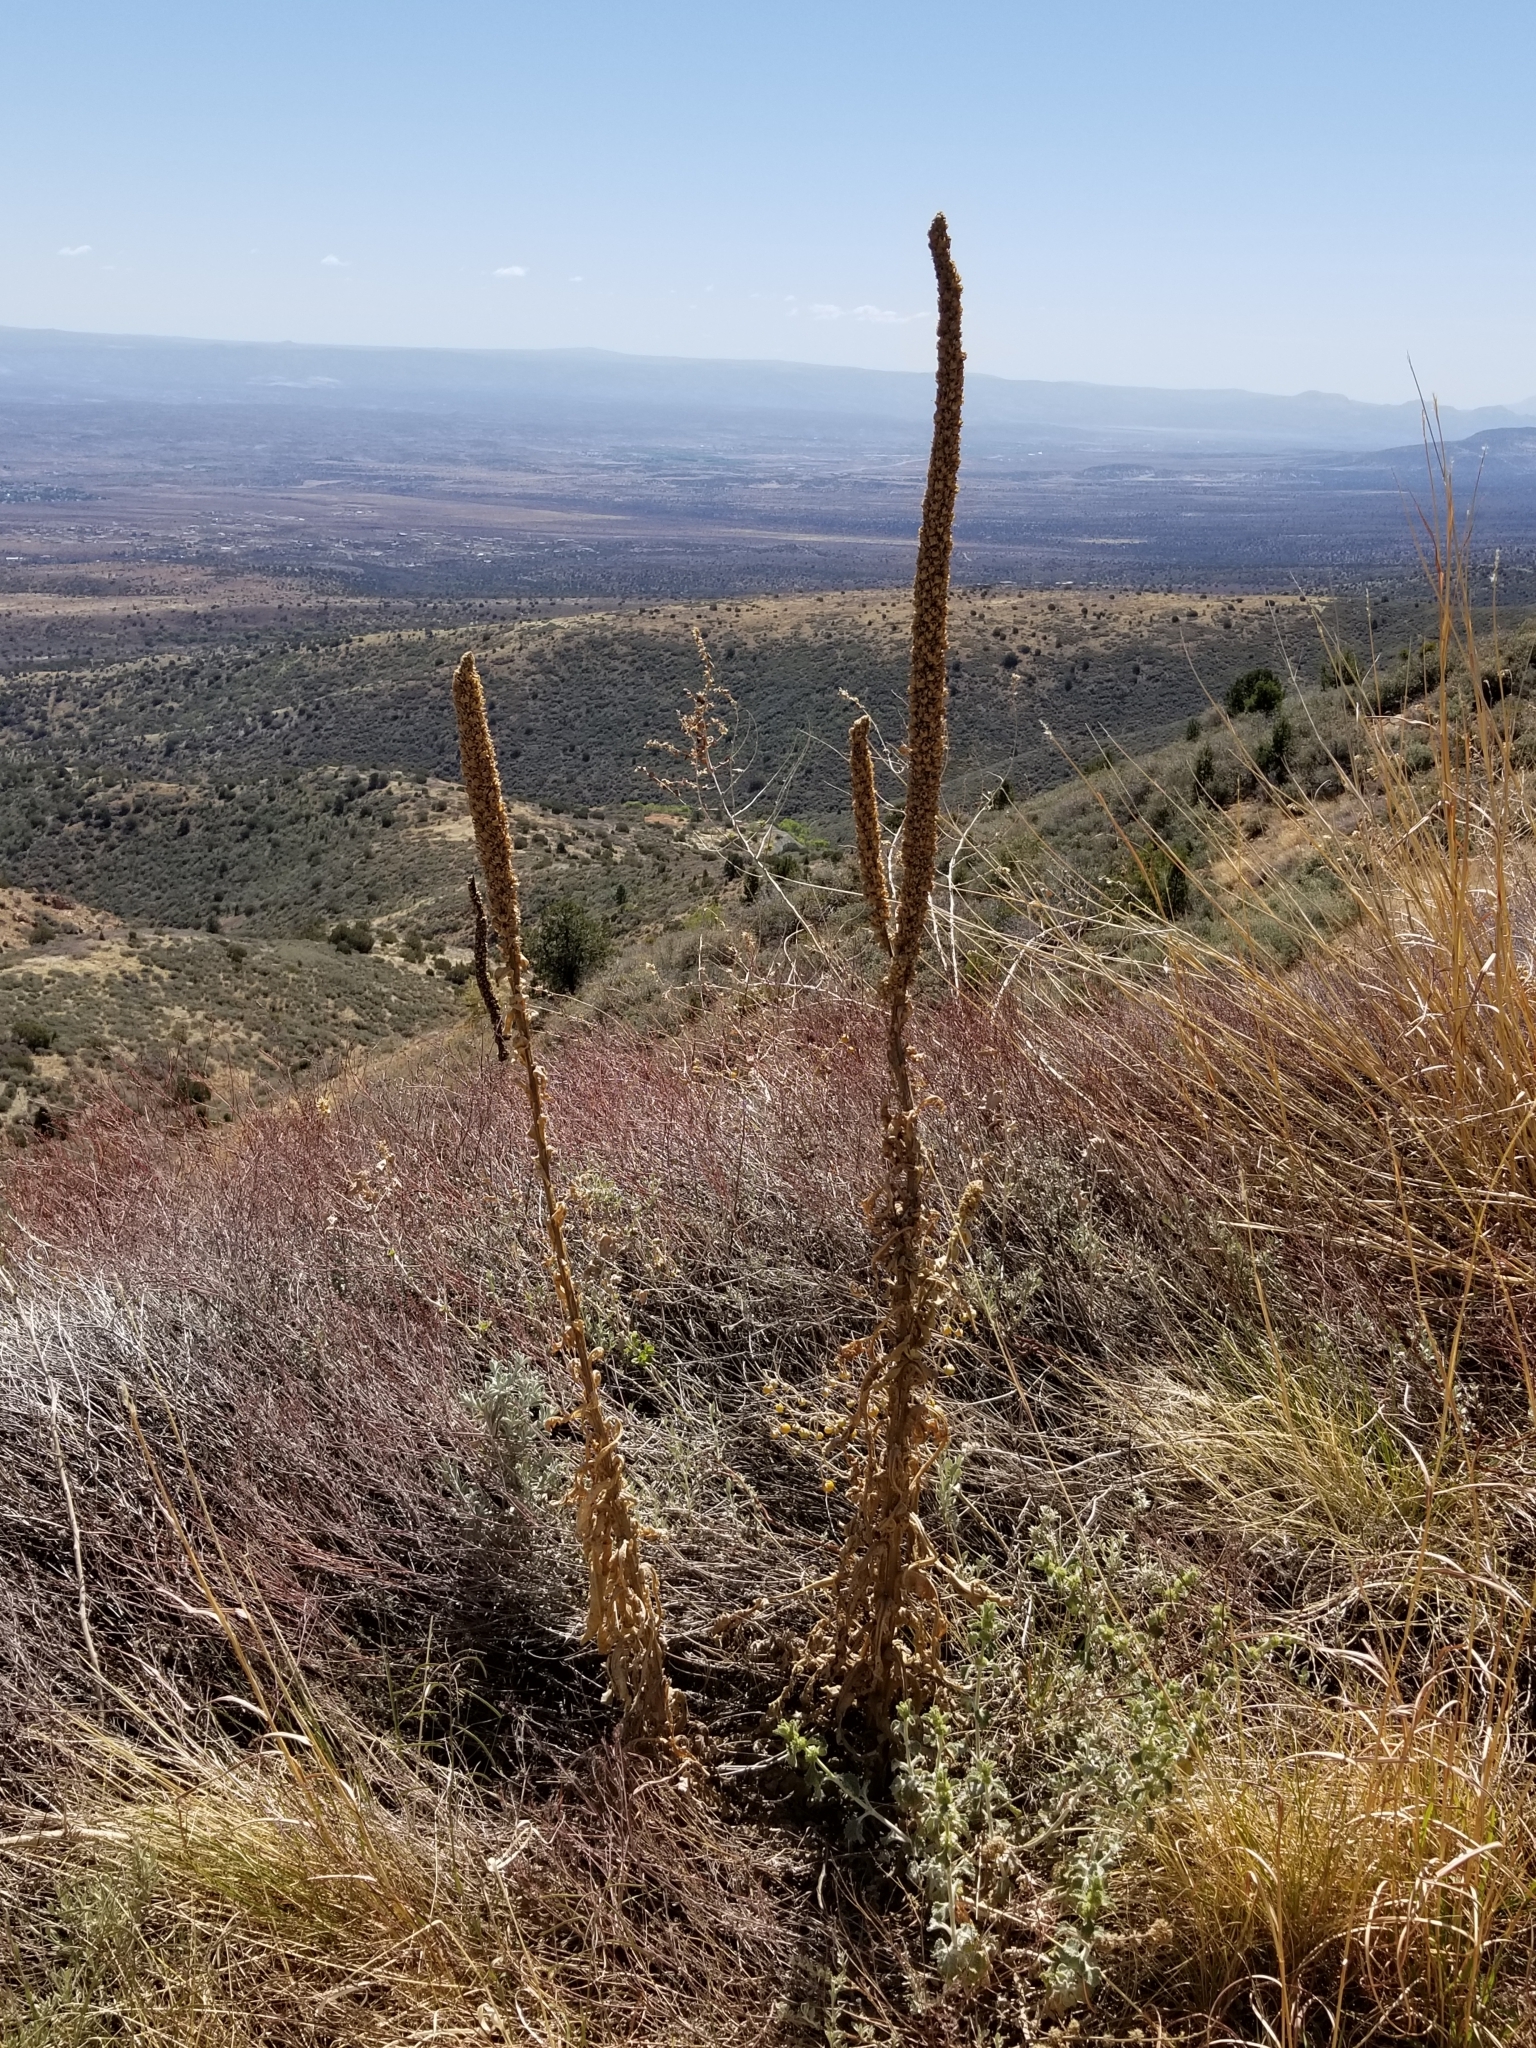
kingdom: Plantae
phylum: Tracheophyta
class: Magnoliopsida
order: Lamiales
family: Scrophulariaceae
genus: Verbascum
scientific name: Verbascum thapsus
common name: Common mullein
